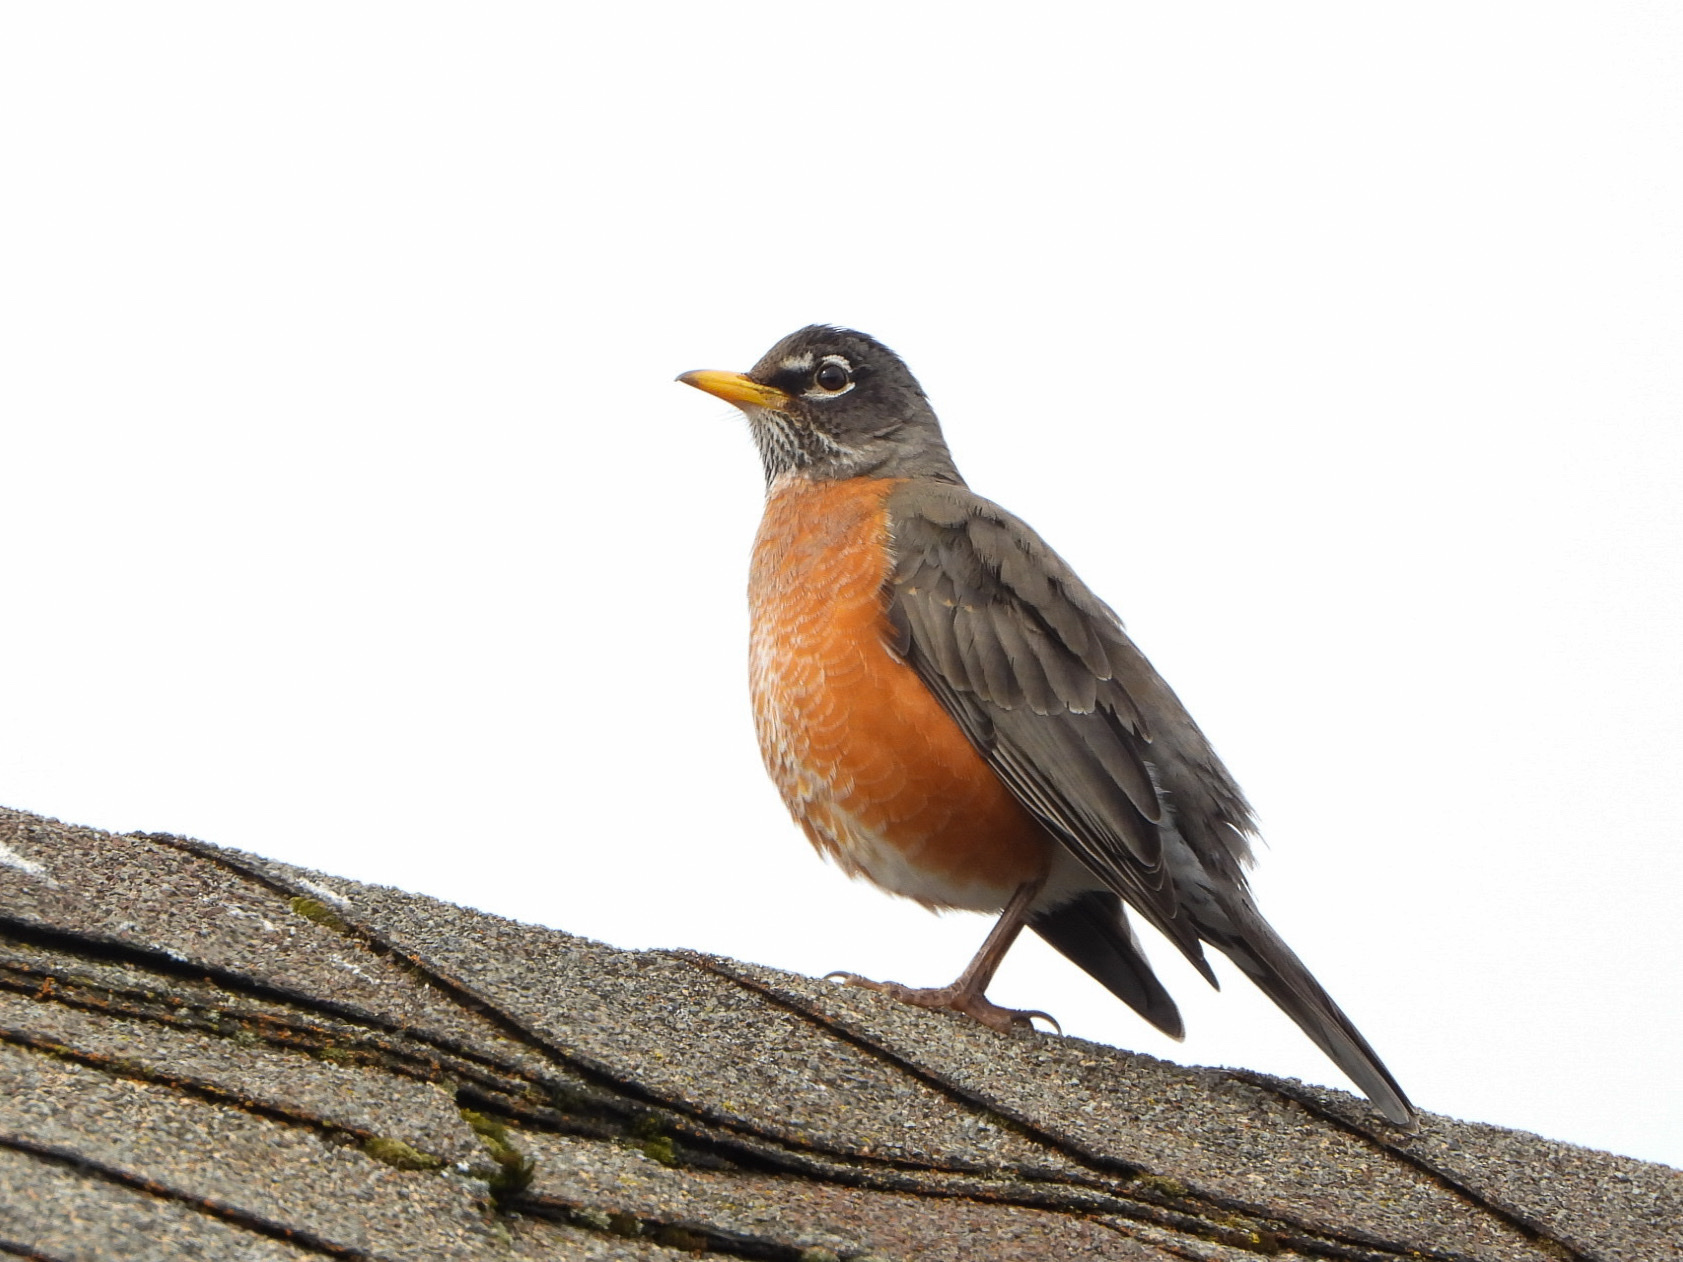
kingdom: Animalia
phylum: Chordata
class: Aves
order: Passeriformes
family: Turdidae
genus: Turdus
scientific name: Turdus migratorius
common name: American robin
